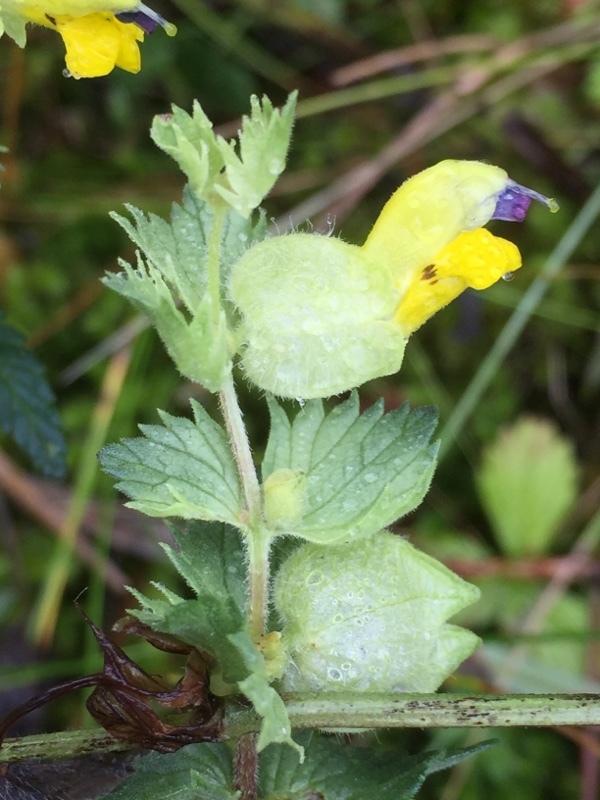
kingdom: Plantae
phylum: Tracheophyta
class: Magnoliopsida
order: Lamiales
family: Orobanchaceae
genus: Rhinanthus
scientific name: Rhinanthus alectorolophus
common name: Greater yellow-rattle
